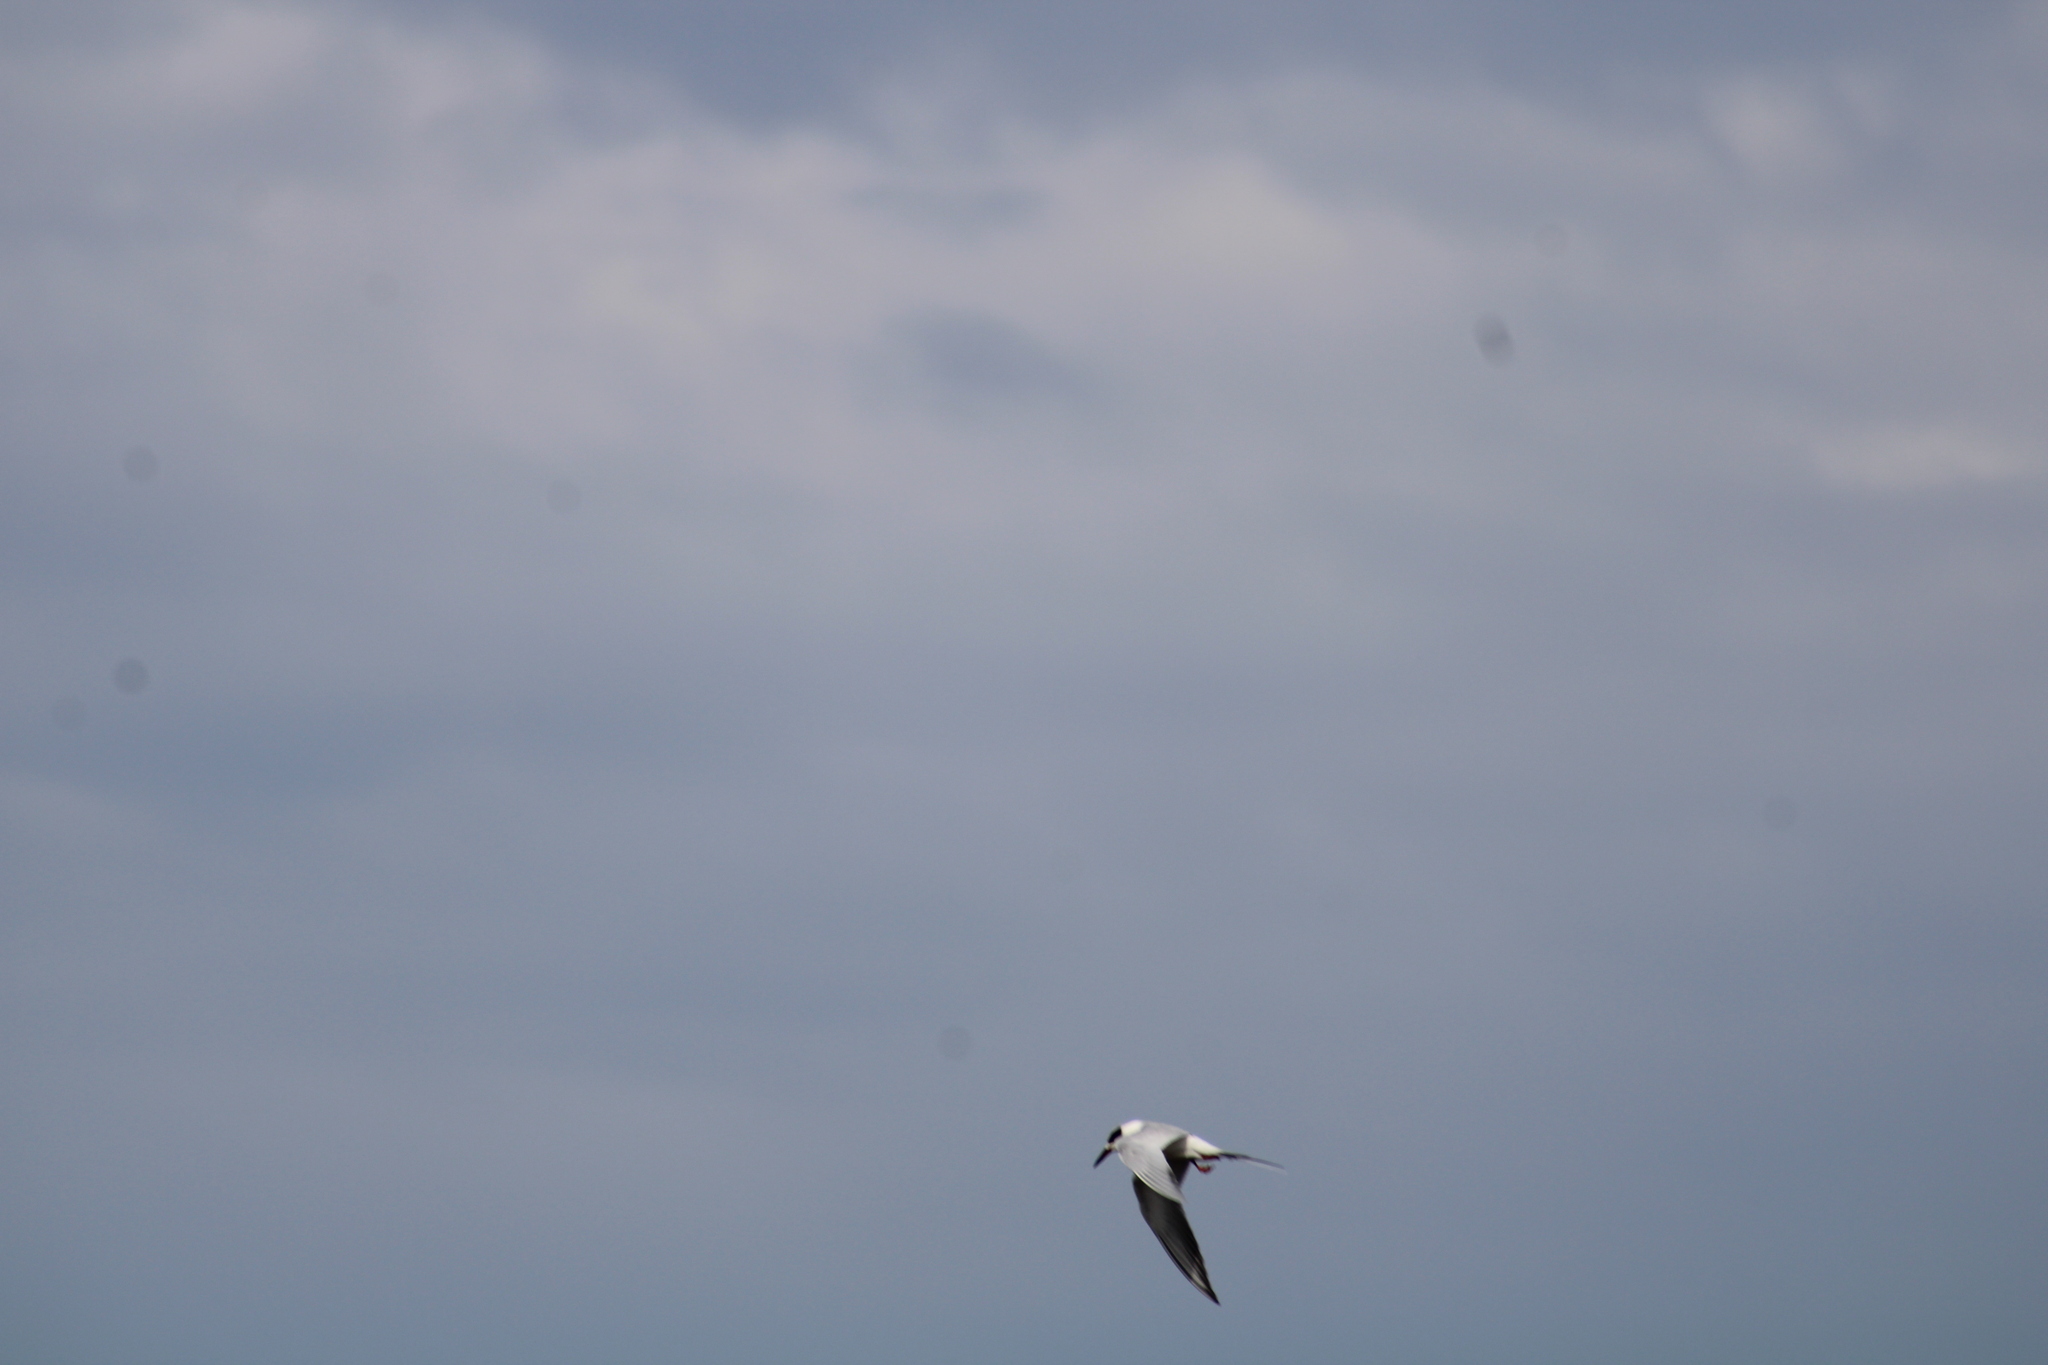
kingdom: Animalia
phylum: Chordata
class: Aves
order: Charadriiformes
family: Laridae
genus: Sterna
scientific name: Sterna forsteri
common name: Forster's tern
